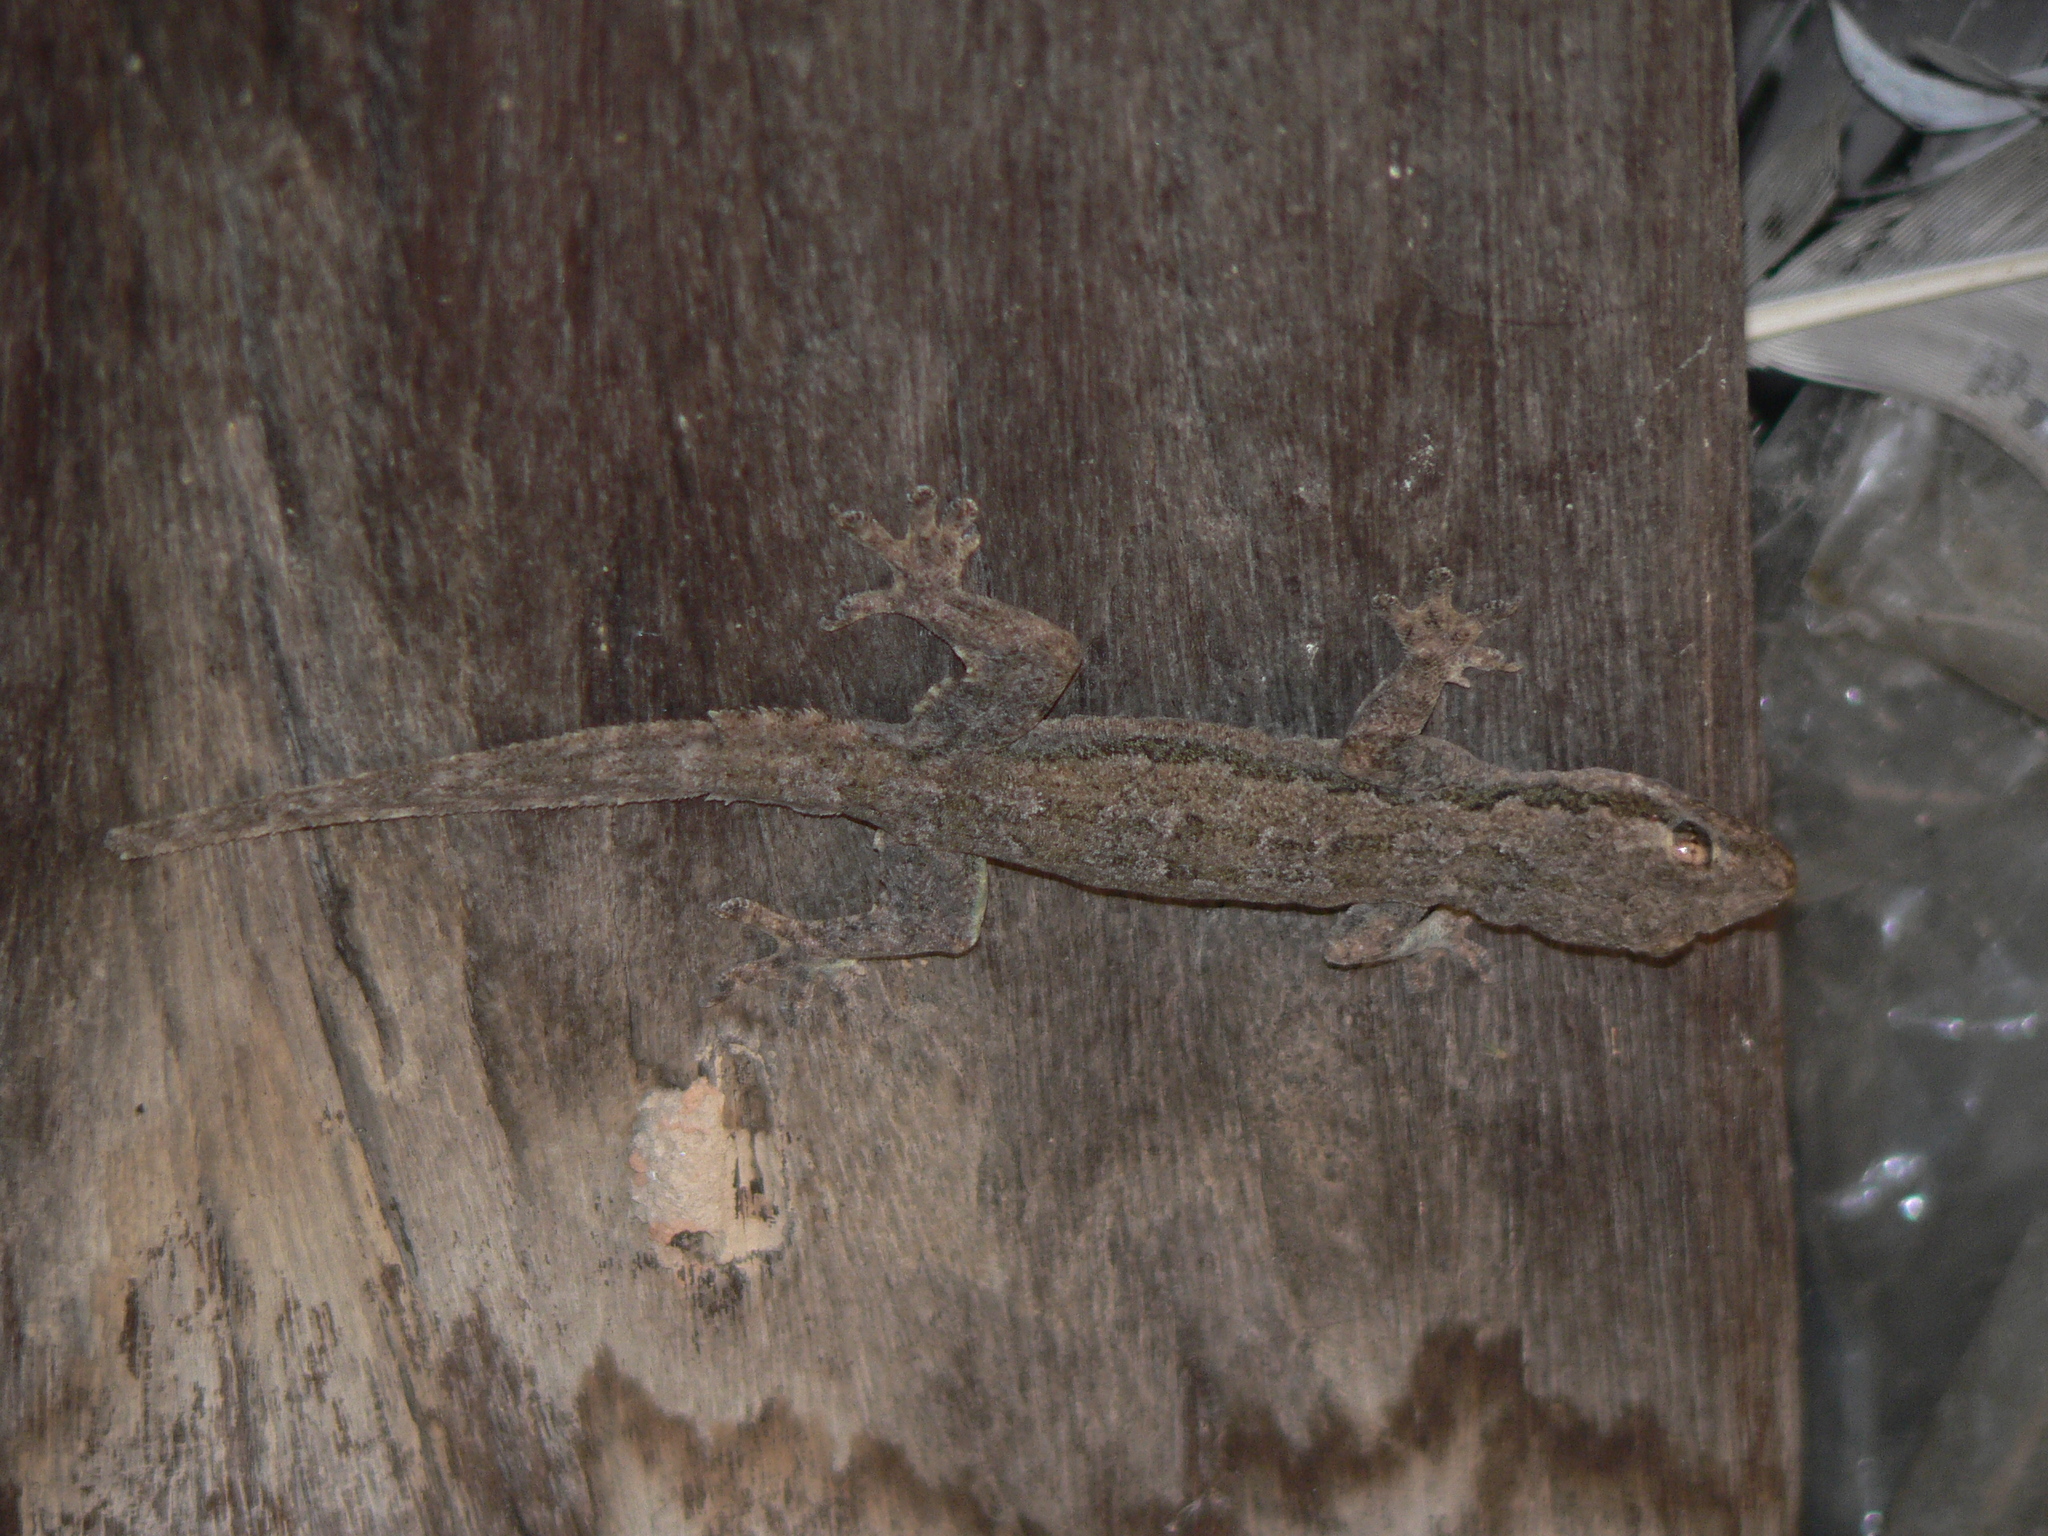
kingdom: Animalia
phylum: Chordata
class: Squamata
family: Gekkonidae
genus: Hemidactylus
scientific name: Hemidactylus frenatus
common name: Common house gecko
